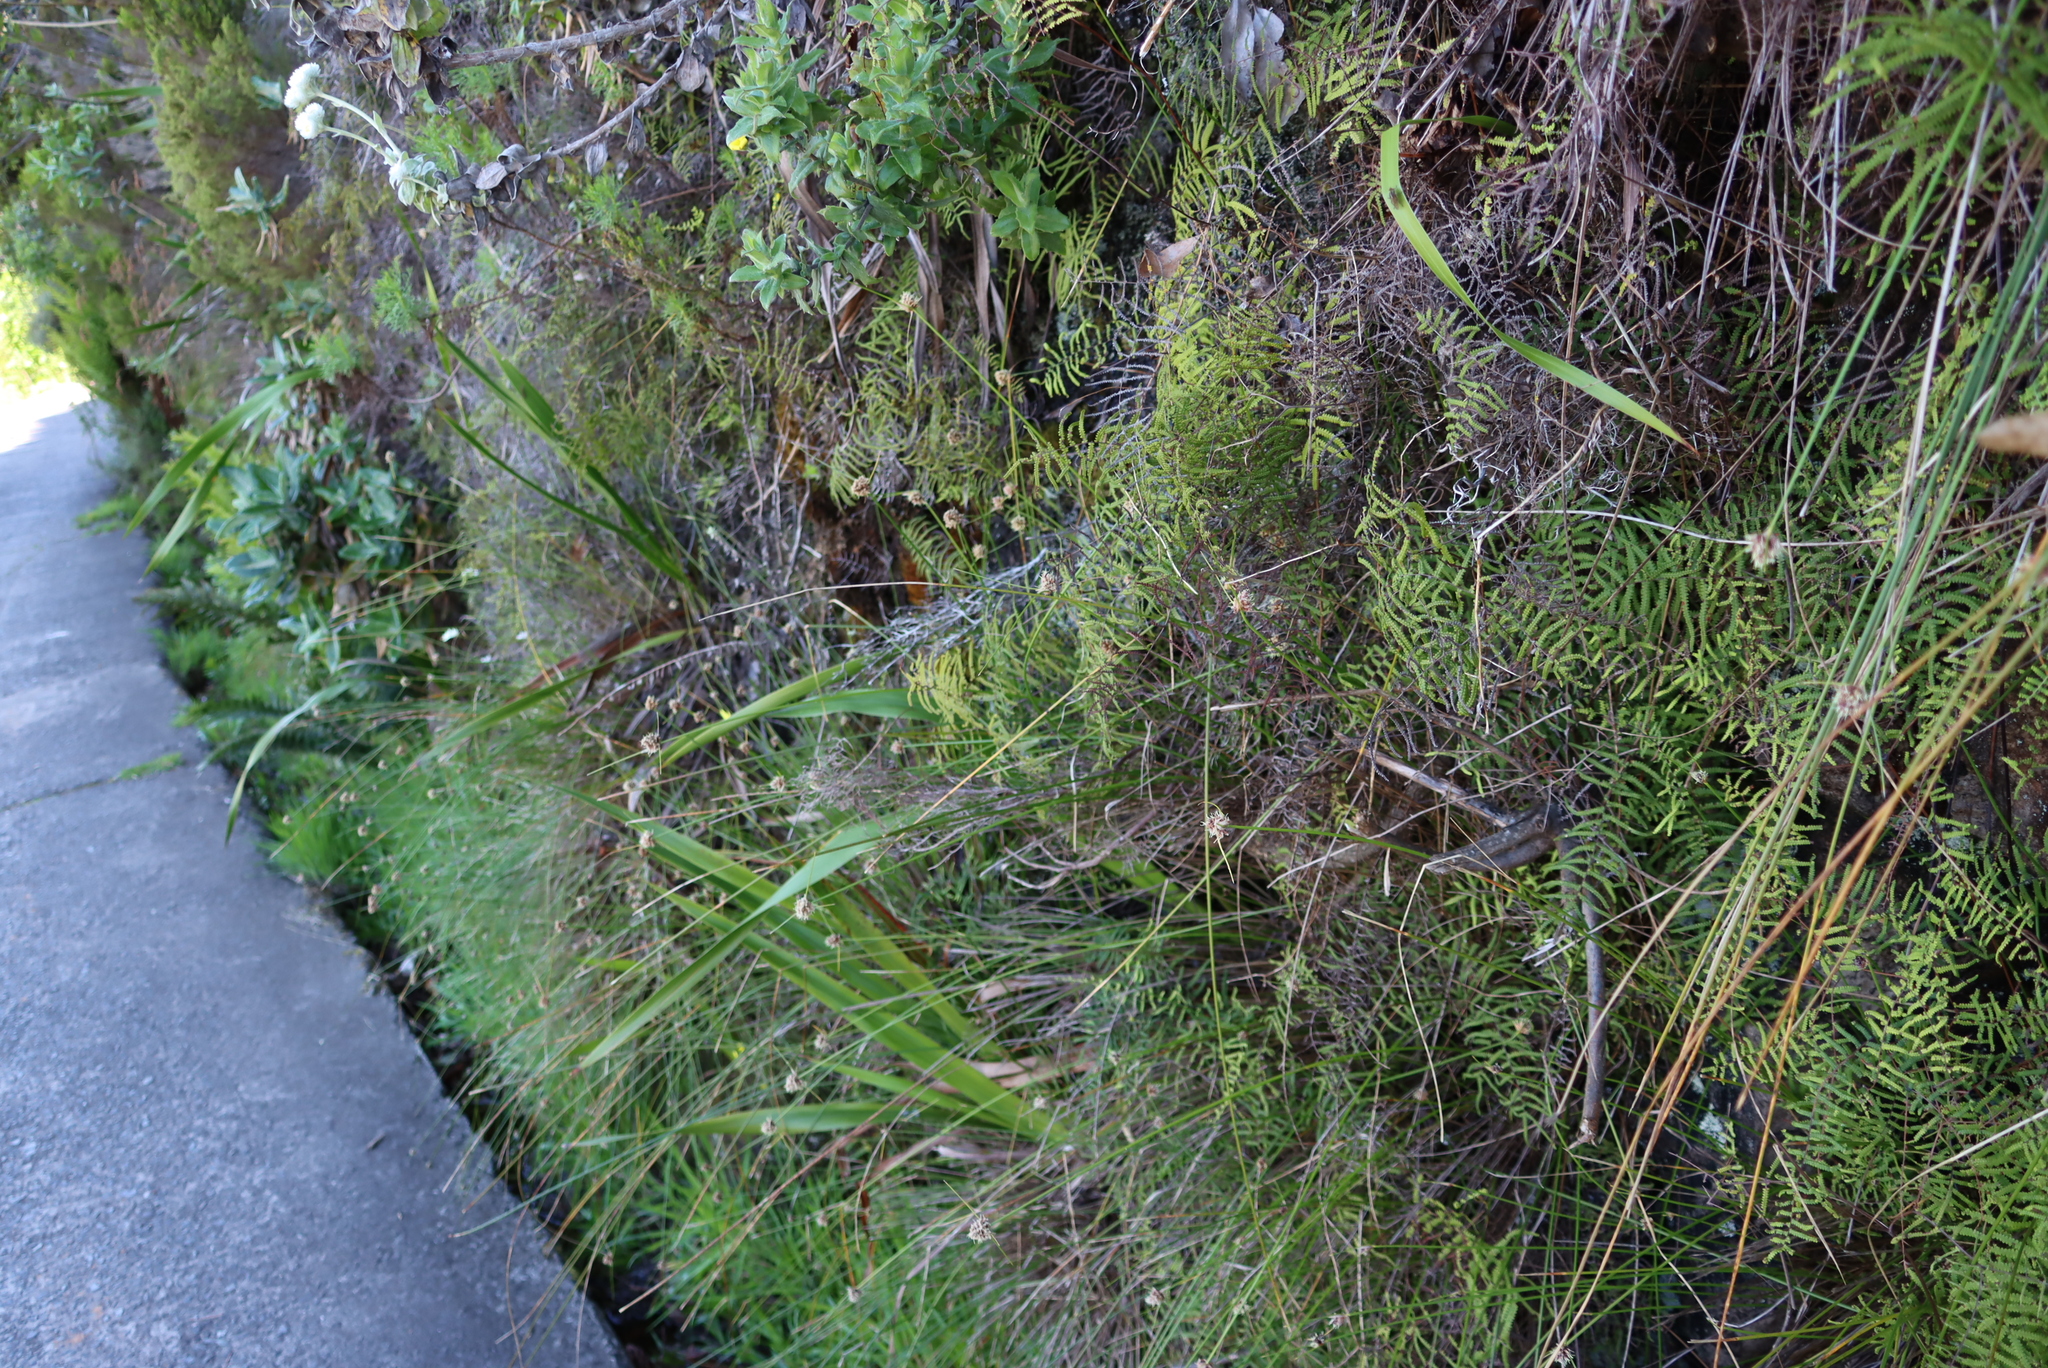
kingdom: Plantae
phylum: Tracheophyta
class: Polypodiopsida
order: Gleicheniales
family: Gleicheniaceae
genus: Gleichenia
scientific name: Gleichenia polypodioides
